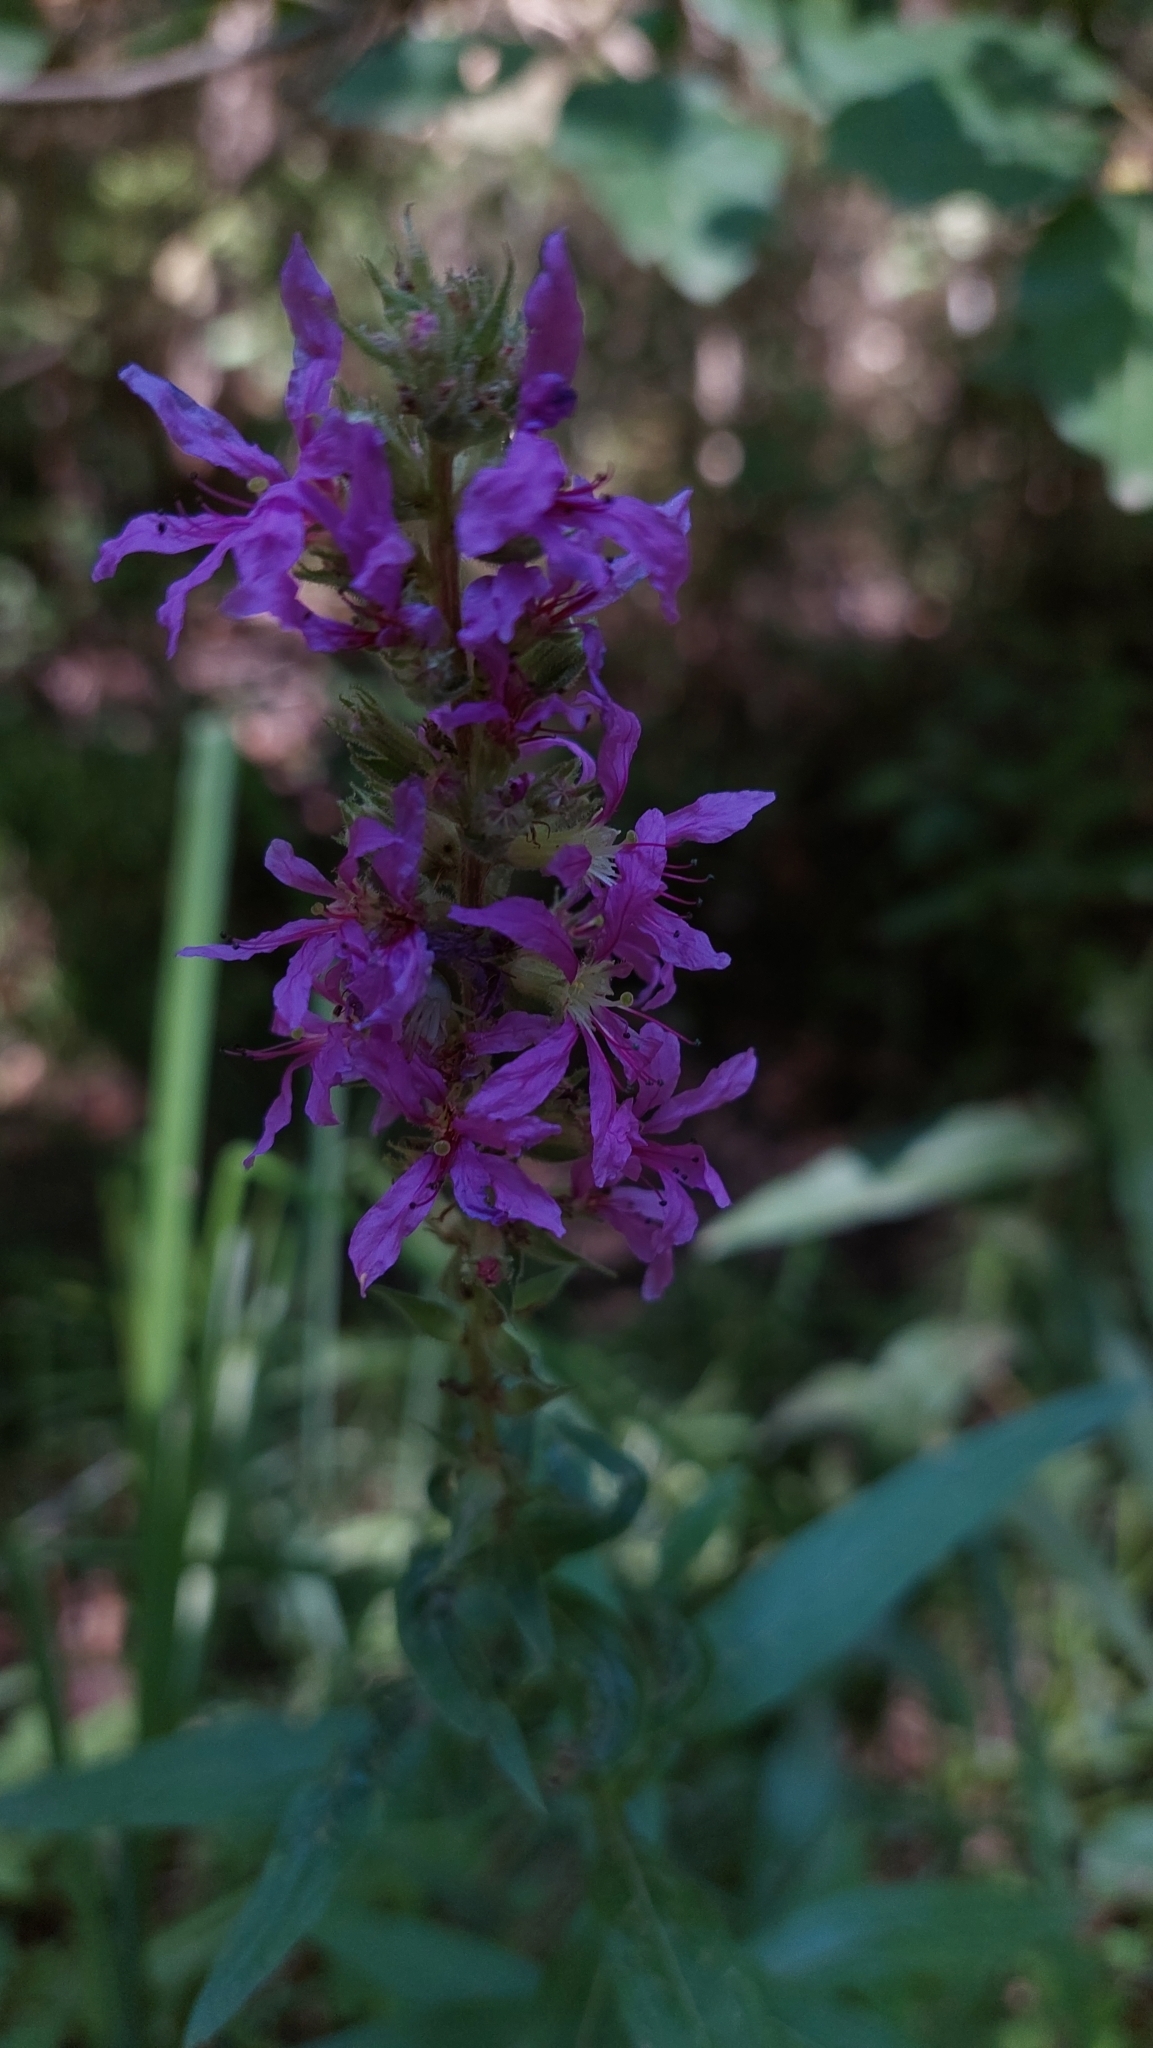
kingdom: Plantae
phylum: Tracheophyta
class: Magnoliopsida
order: Myrtales
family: Lythraceae
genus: Lythrum
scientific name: Lythrum salicaria
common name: Purple loosestrife
